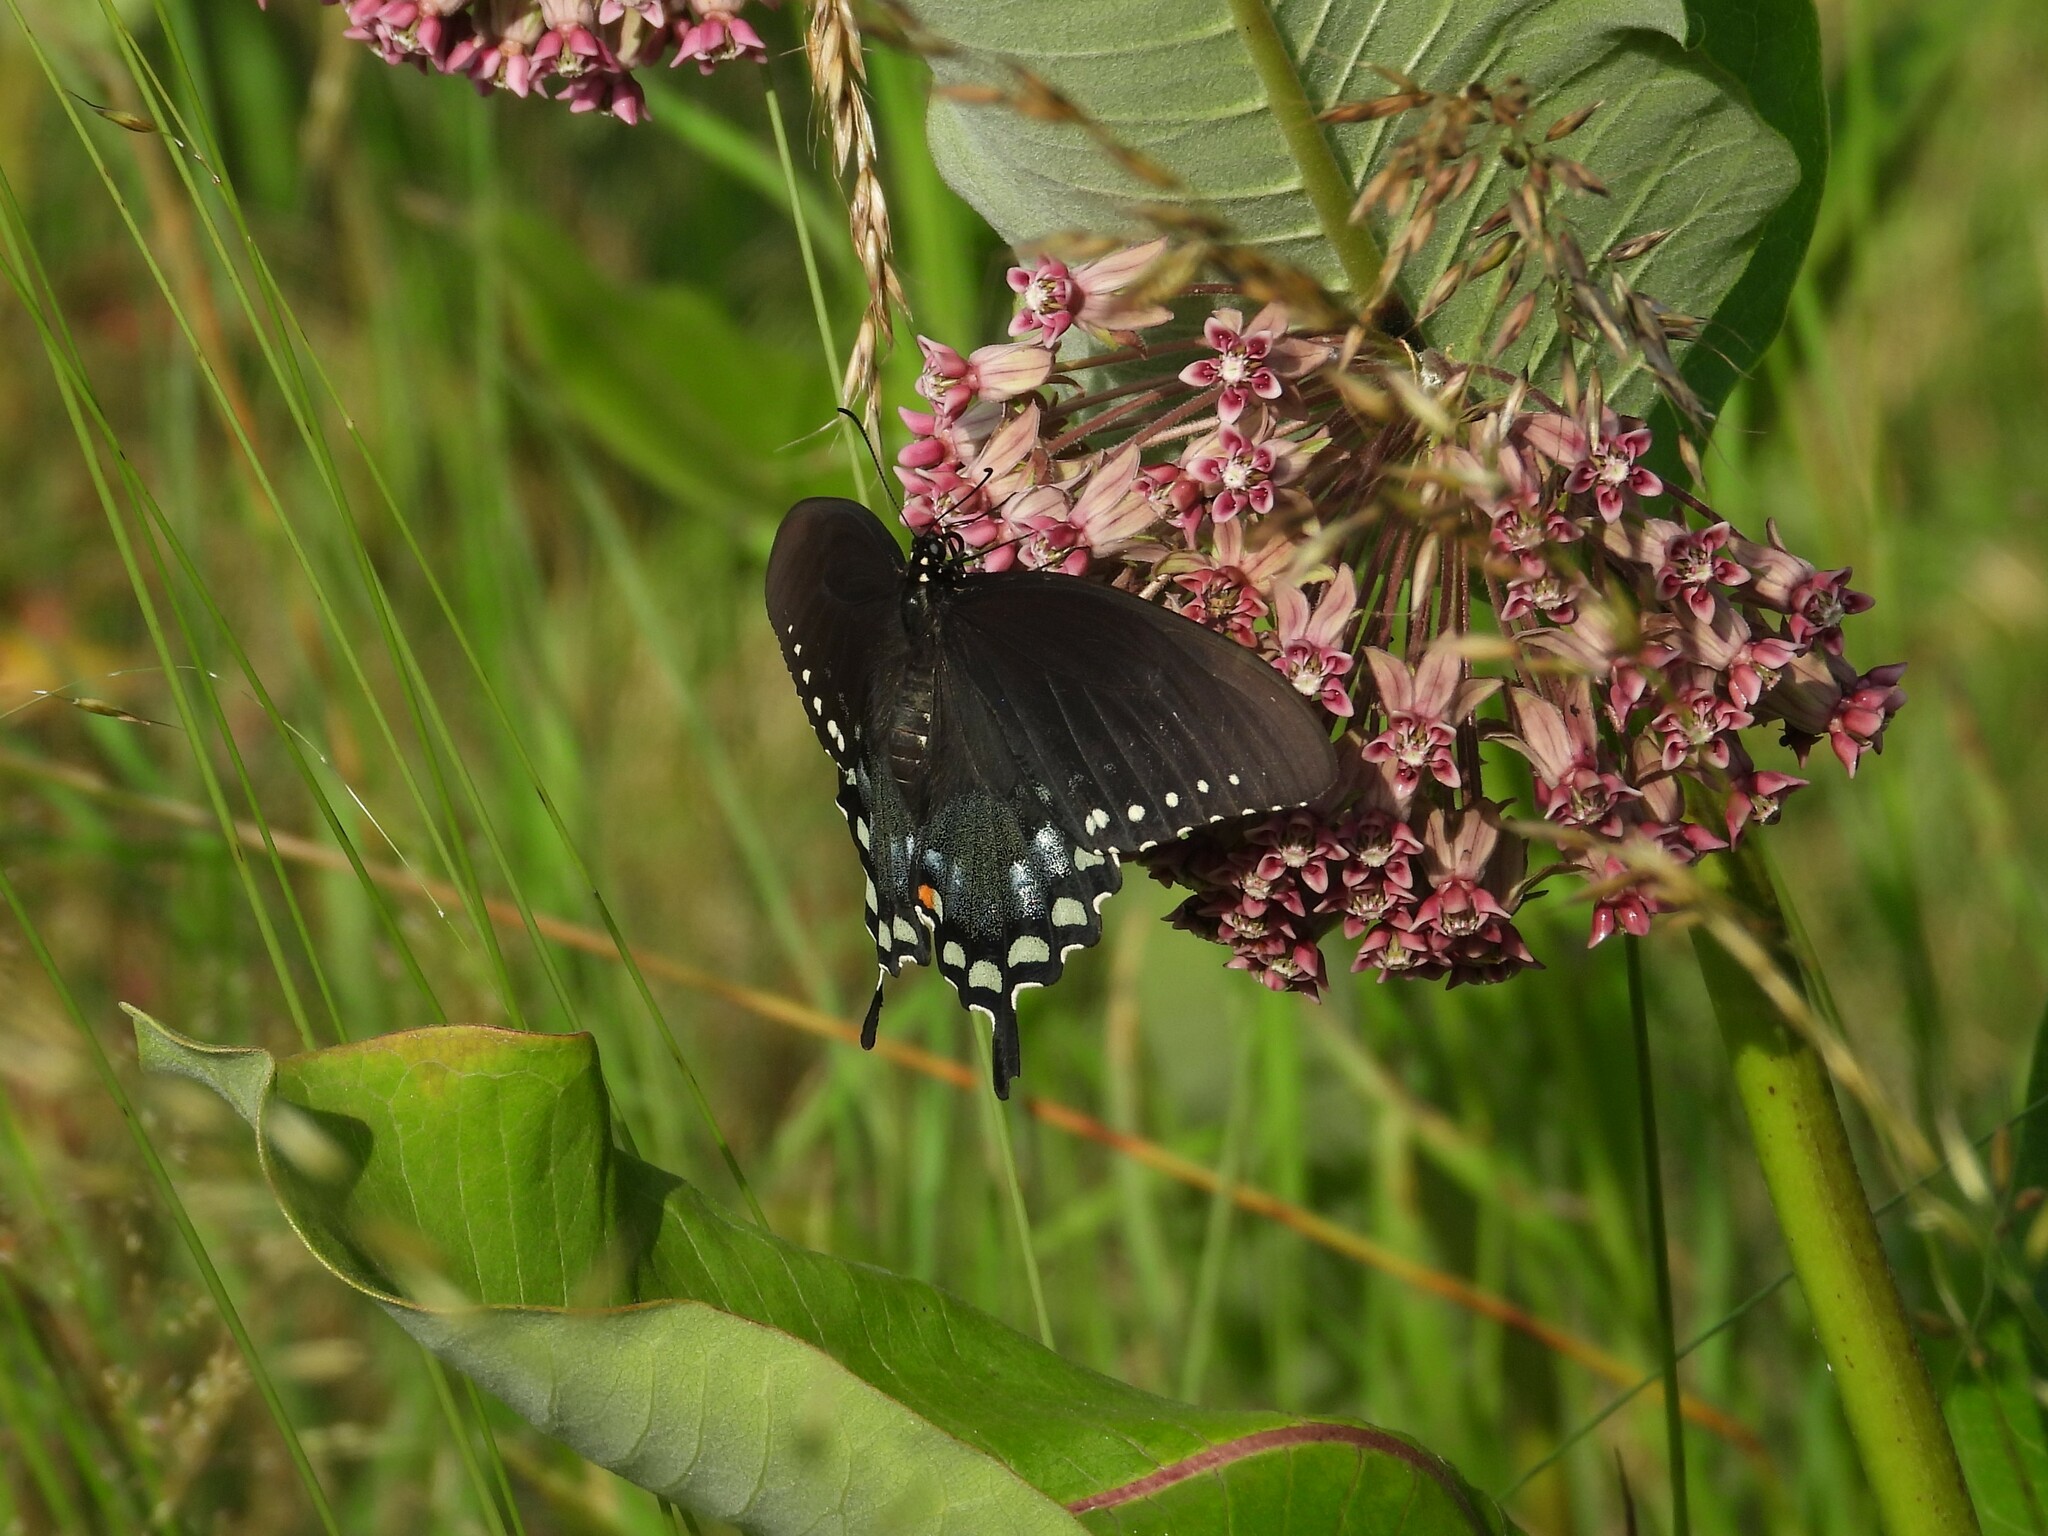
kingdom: Animalia
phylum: Arthropoda
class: Insecta
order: Lepidoptera
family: Papilionidae
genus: Papilio
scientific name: Papilio troilus
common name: Spicebush swallowtail
